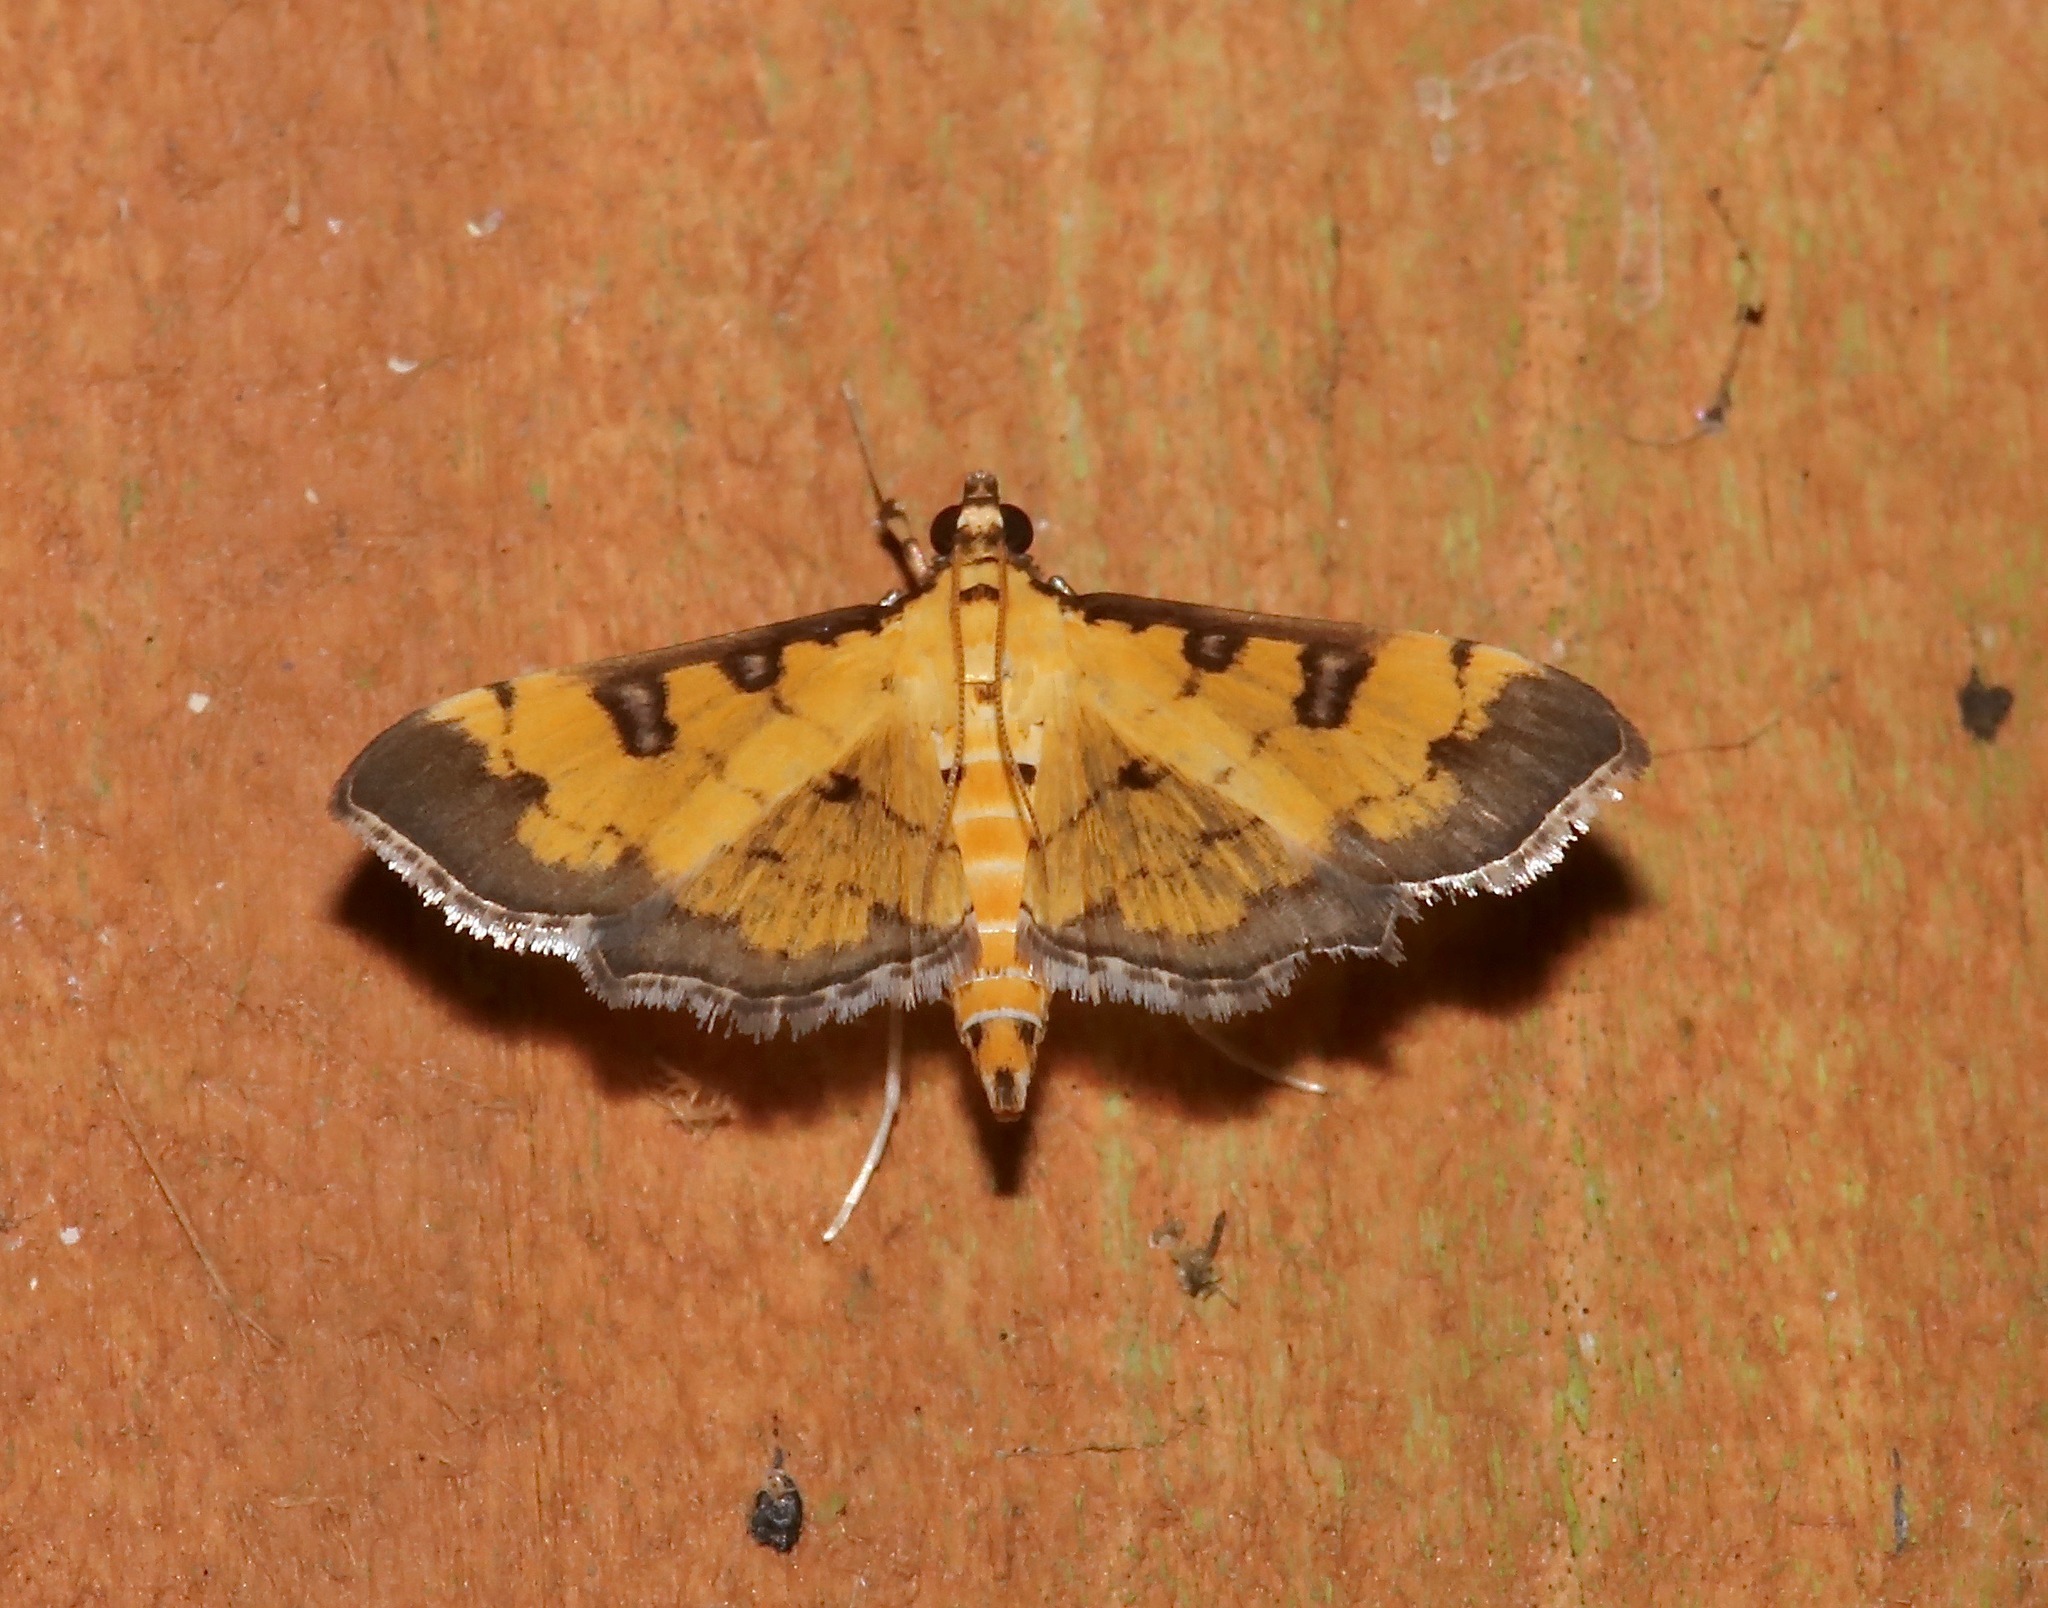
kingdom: Animalia
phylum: Arthropoda
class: Insecta
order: Lepidoptera
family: Crambidae
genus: Ategumia
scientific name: Ategumia ebulealis
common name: Moth
